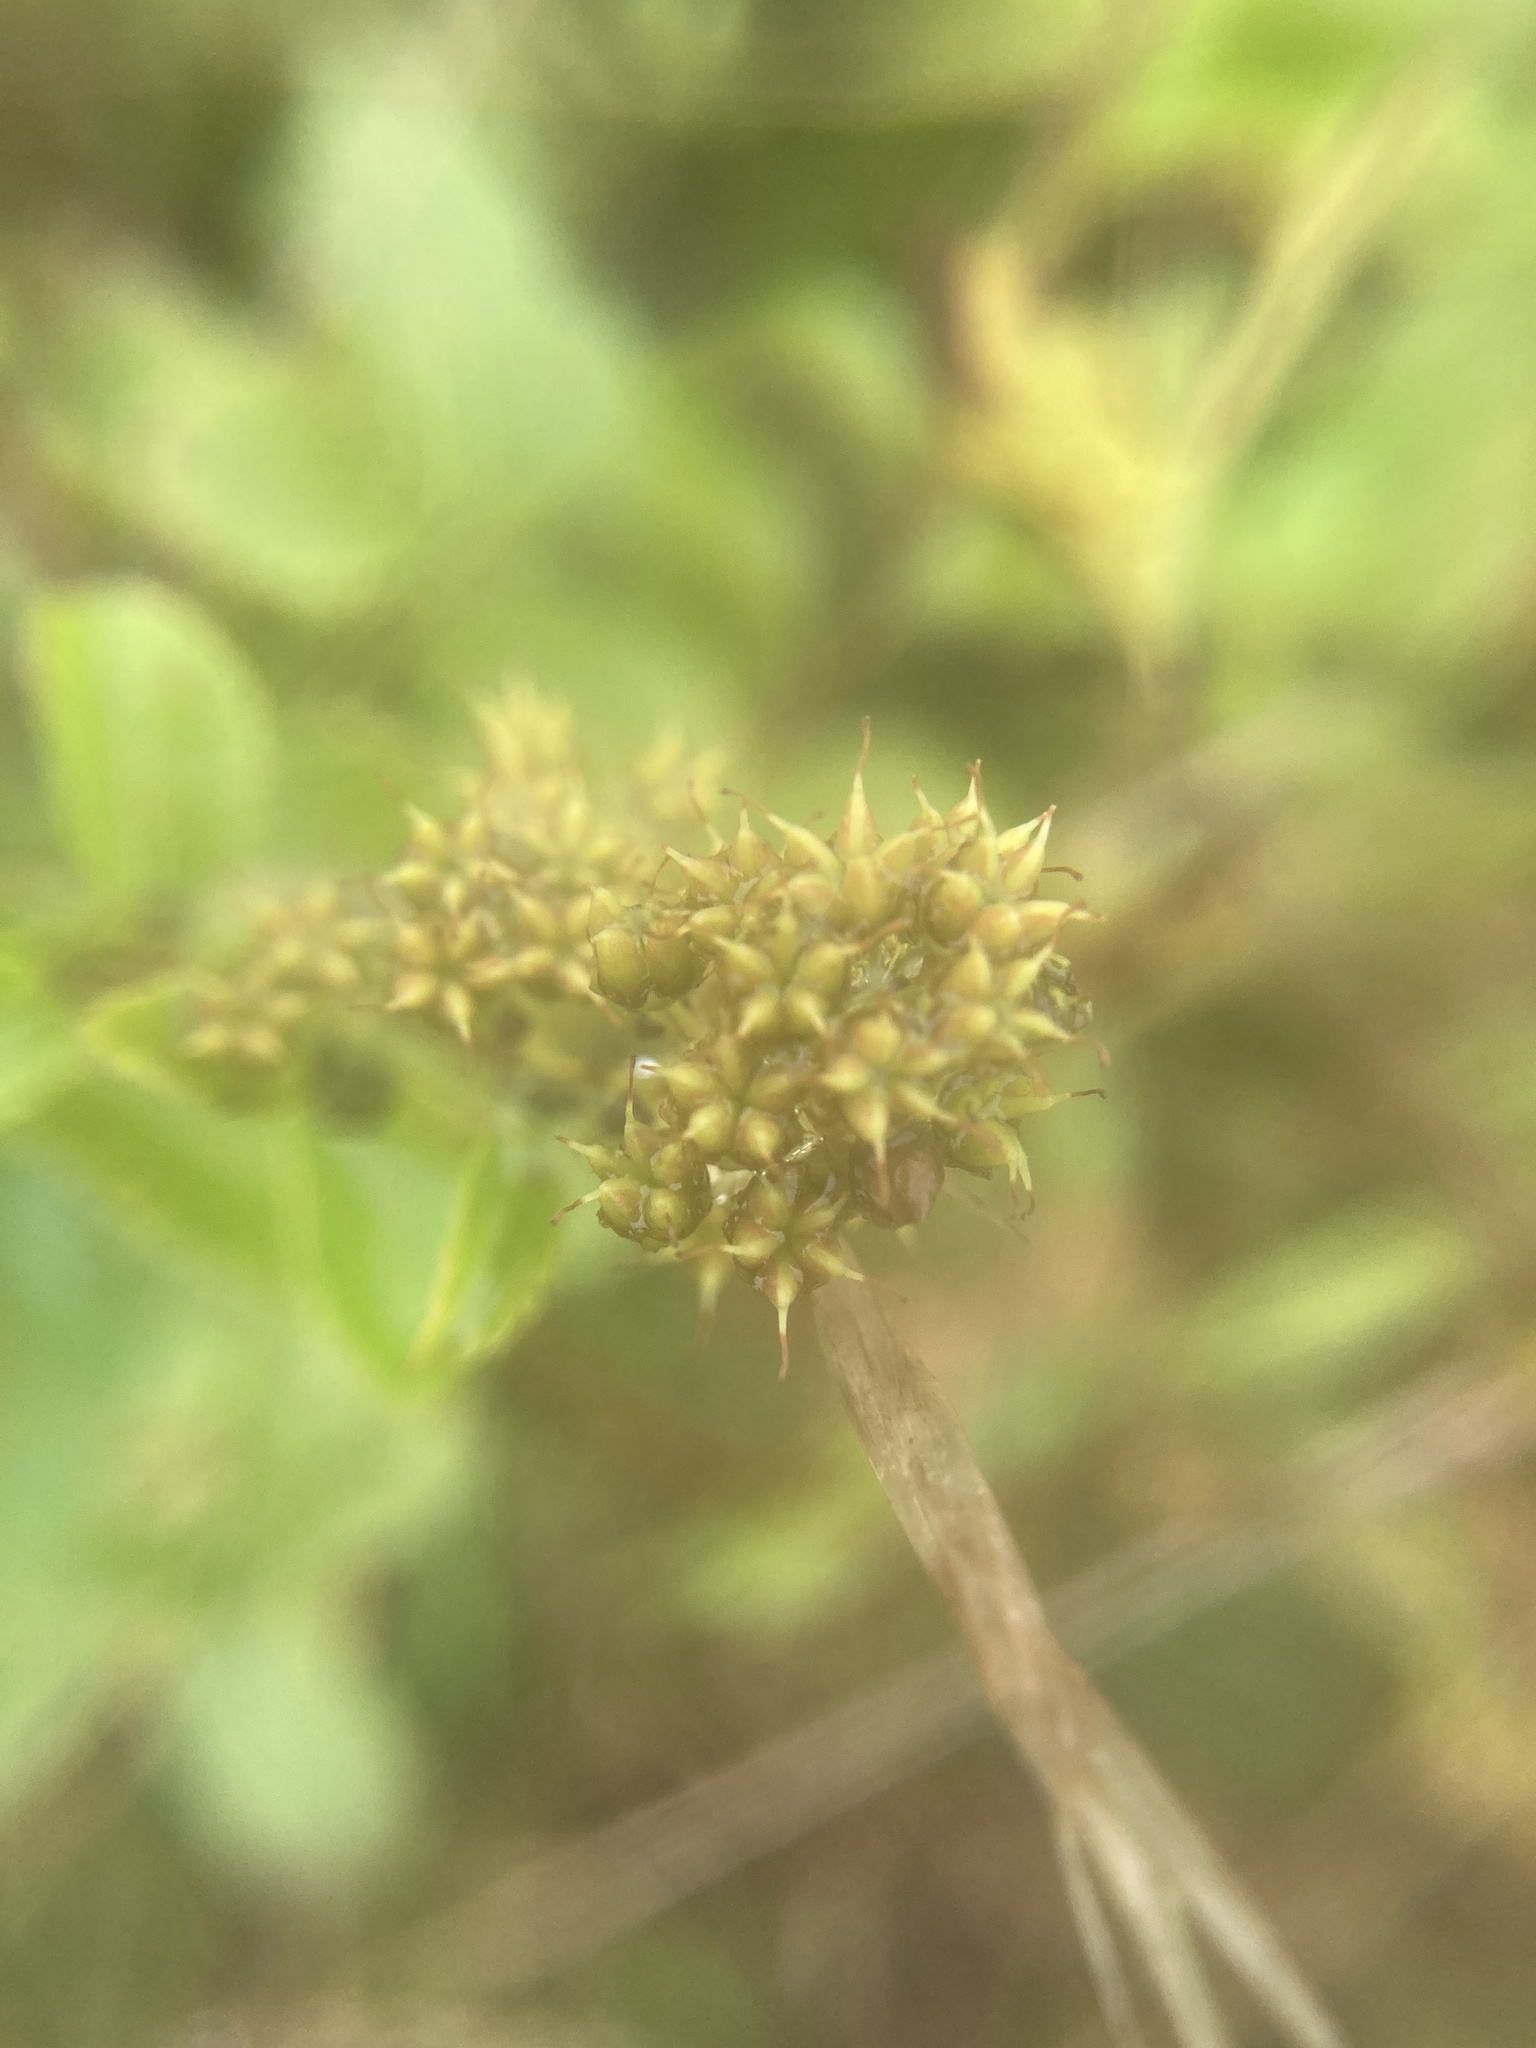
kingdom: Plantae
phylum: Tracheophyta
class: Magnoliopsida
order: Rosales
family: Rosaceae
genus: Spiraea
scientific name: Spiraea alba
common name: Pale bridewort
